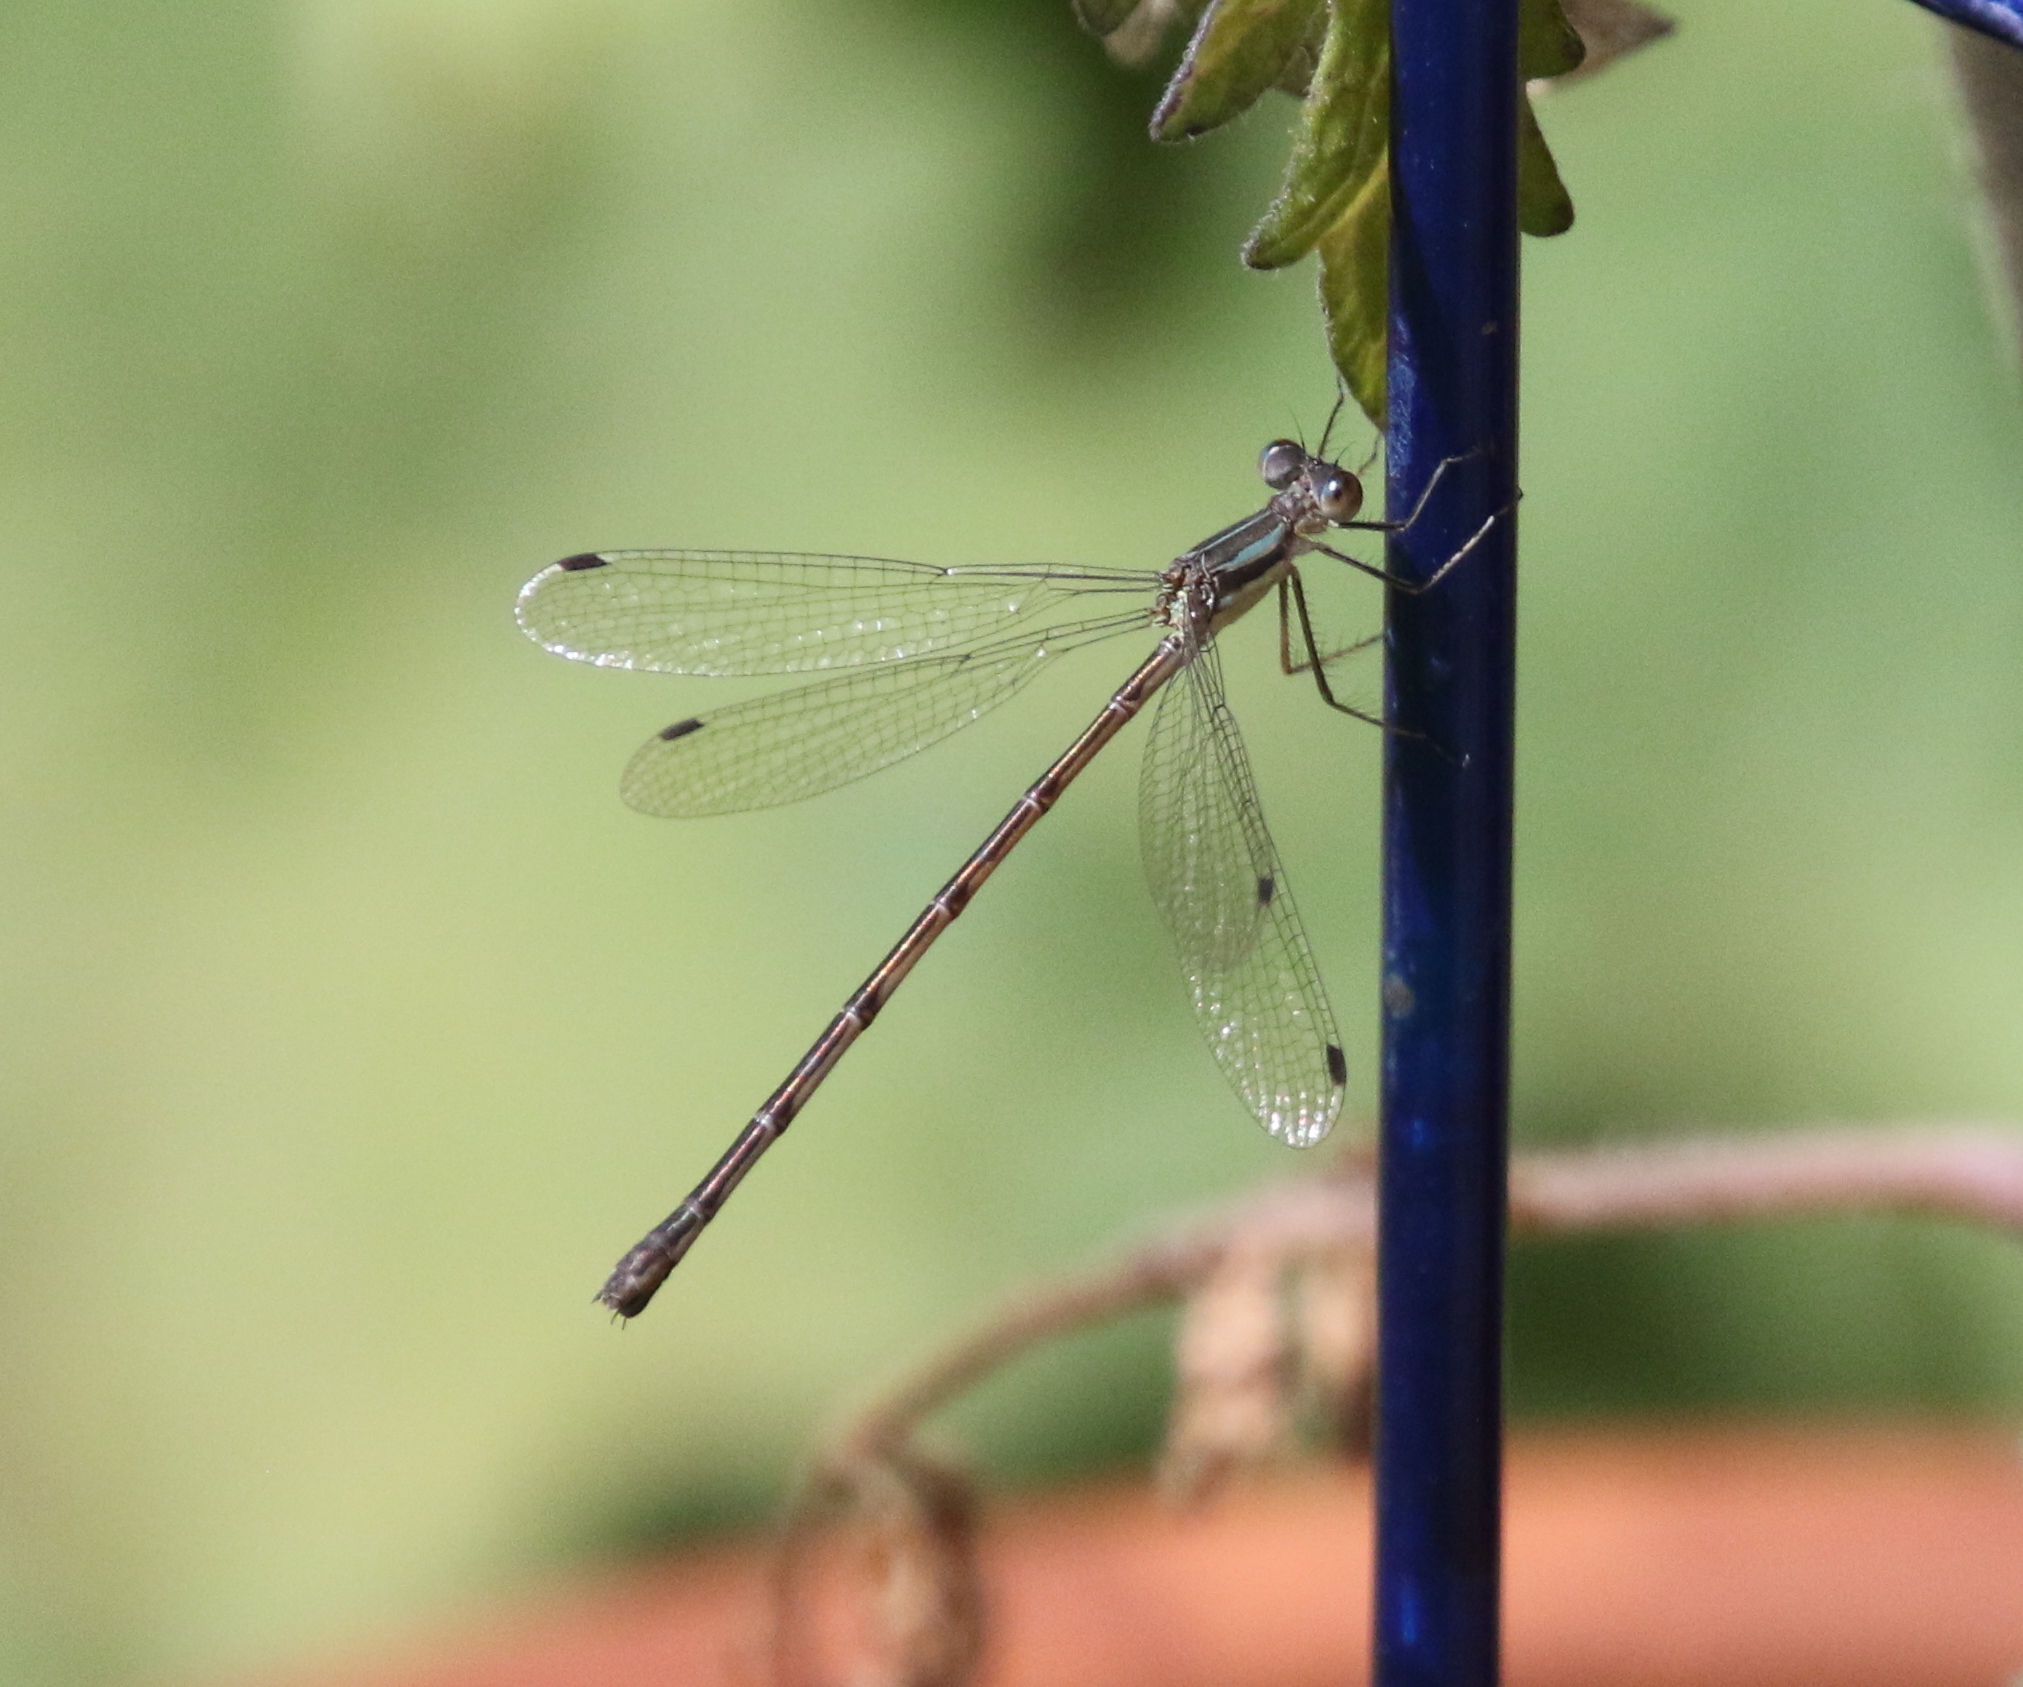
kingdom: Animalia
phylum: Arthropoda
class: Insecta
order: Odonata
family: Lestidae
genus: Lestes
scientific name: Lestes rectangularis
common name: Slender spreadwing
